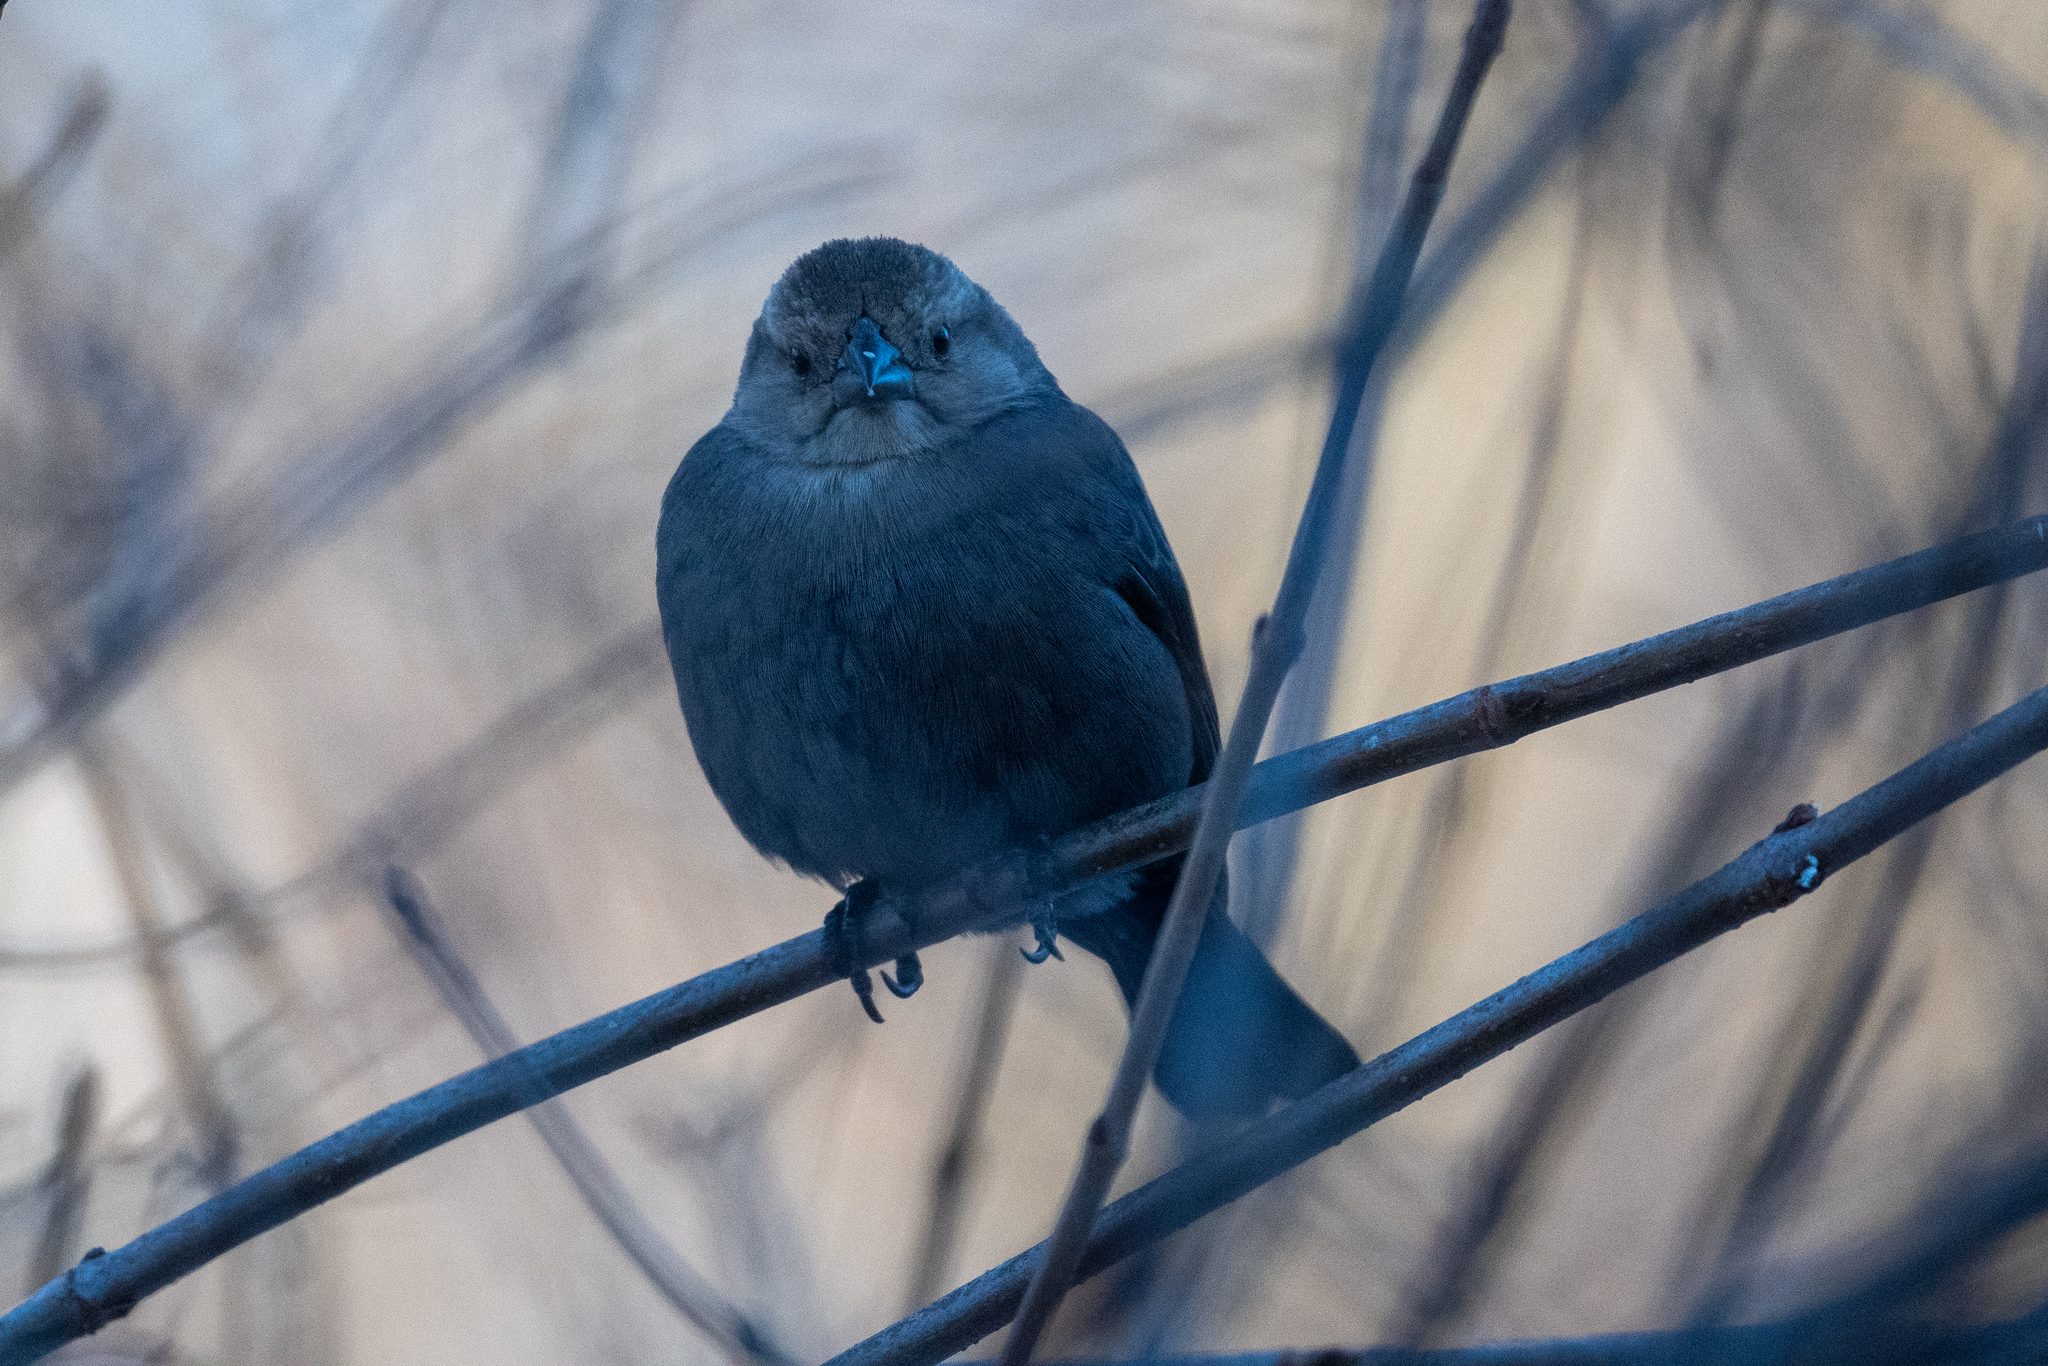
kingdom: Animalia
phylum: Chordata
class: Aves
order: Passeriformes
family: Icteridae
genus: Molothrus
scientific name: Molothrus ater
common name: Brown-headed cowbird
